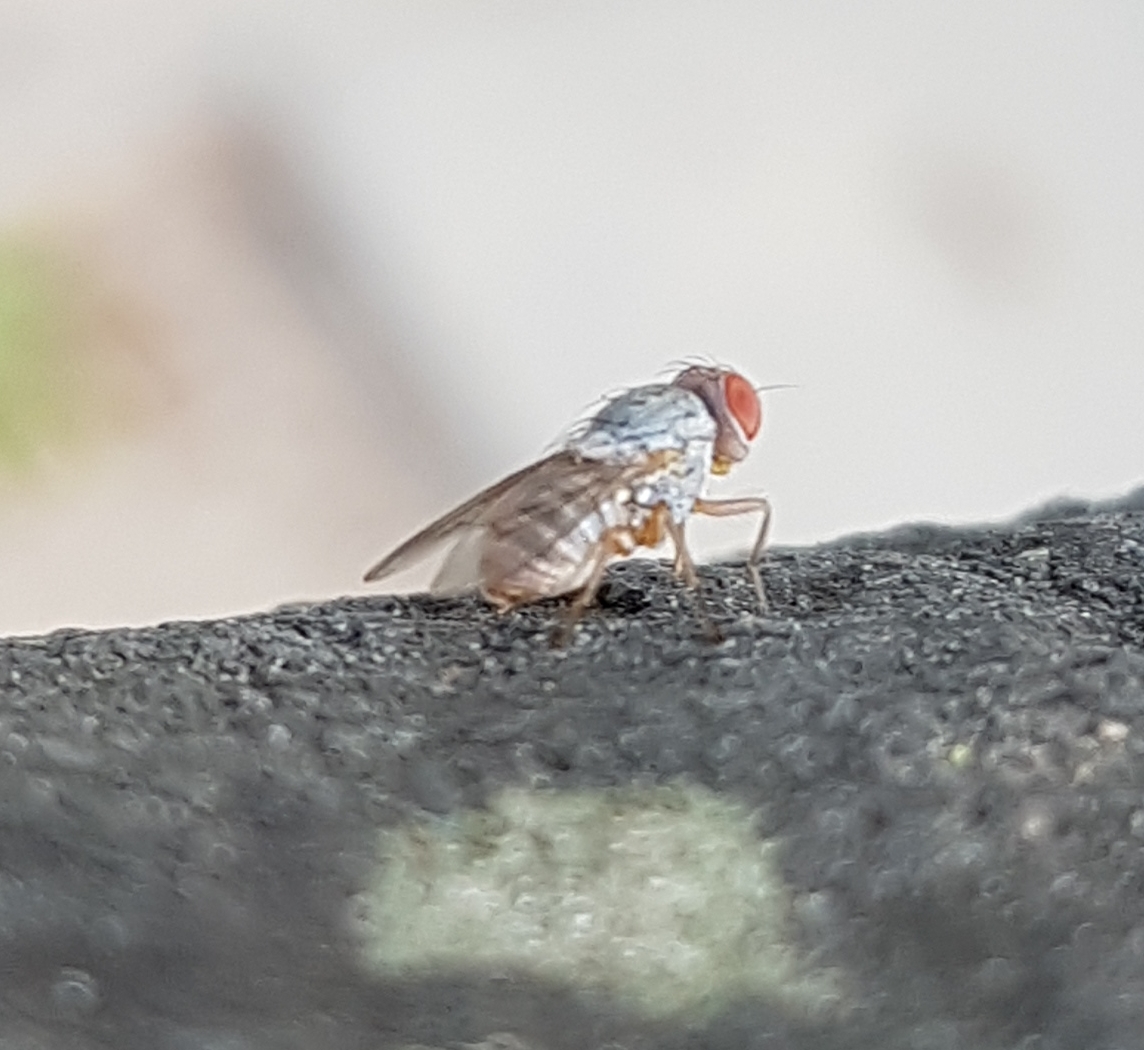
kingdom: Animalia
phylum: Arthropoda
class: Insecta
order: Diptera
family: Lauxaniidae
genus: Prosopomyia
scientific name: Prosopomyia pallida
